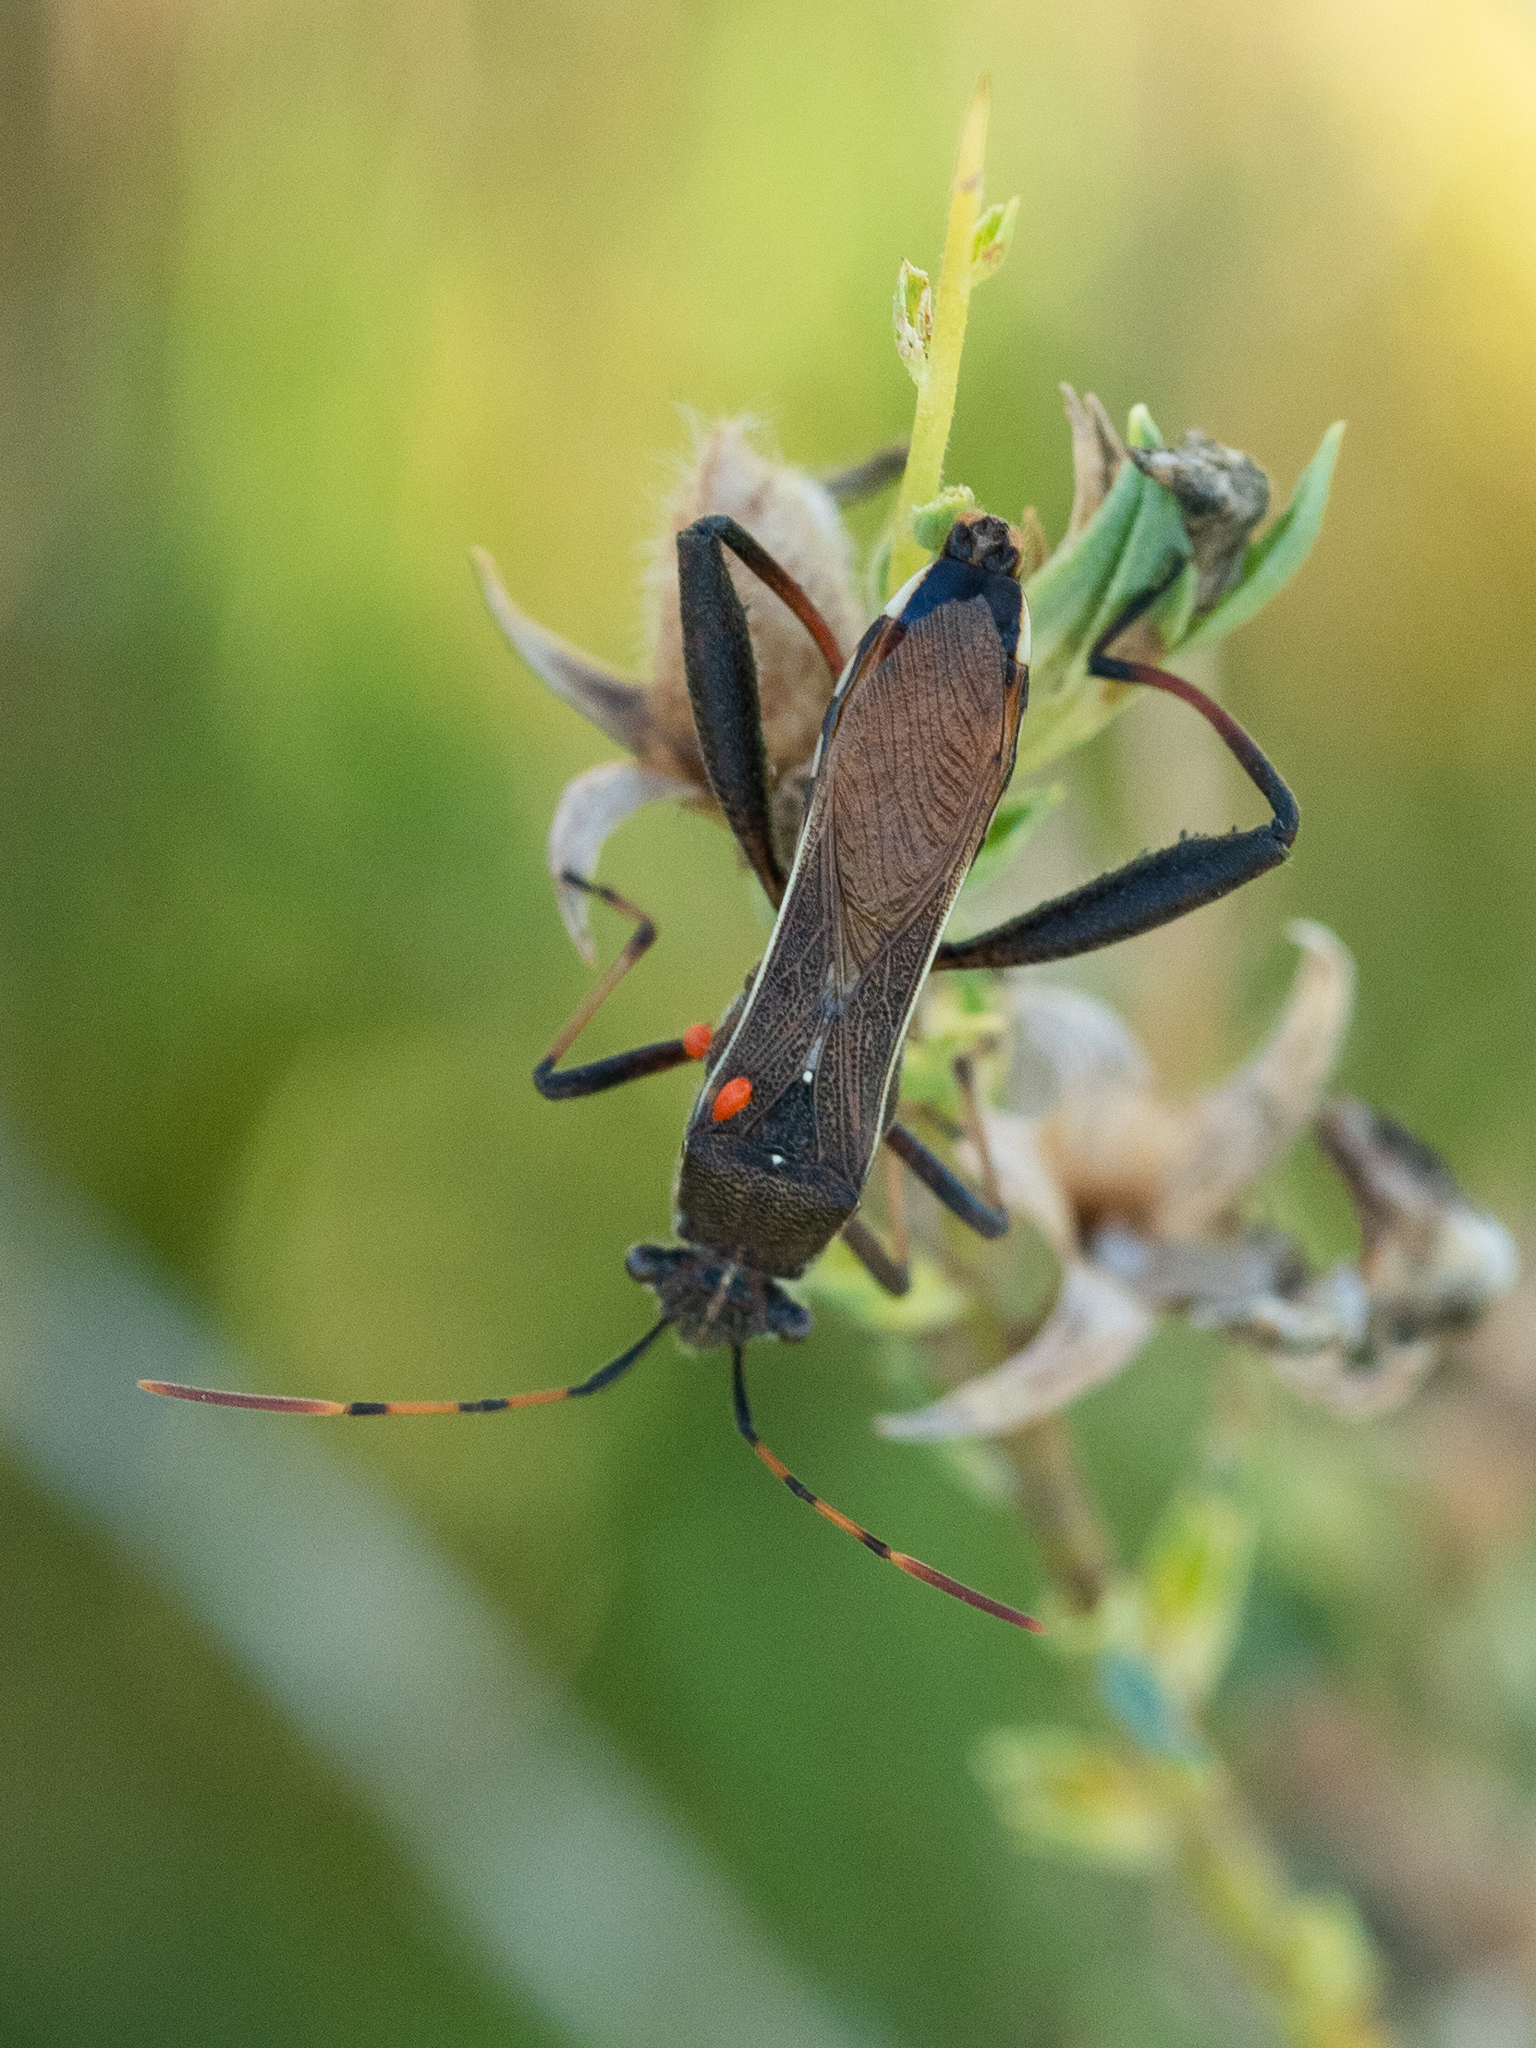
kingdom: Animalia
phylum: Arthropoda
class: Insecta
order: Hemiptera
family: Alydidae
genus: Camptopus
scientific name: Camptopus lateralis
